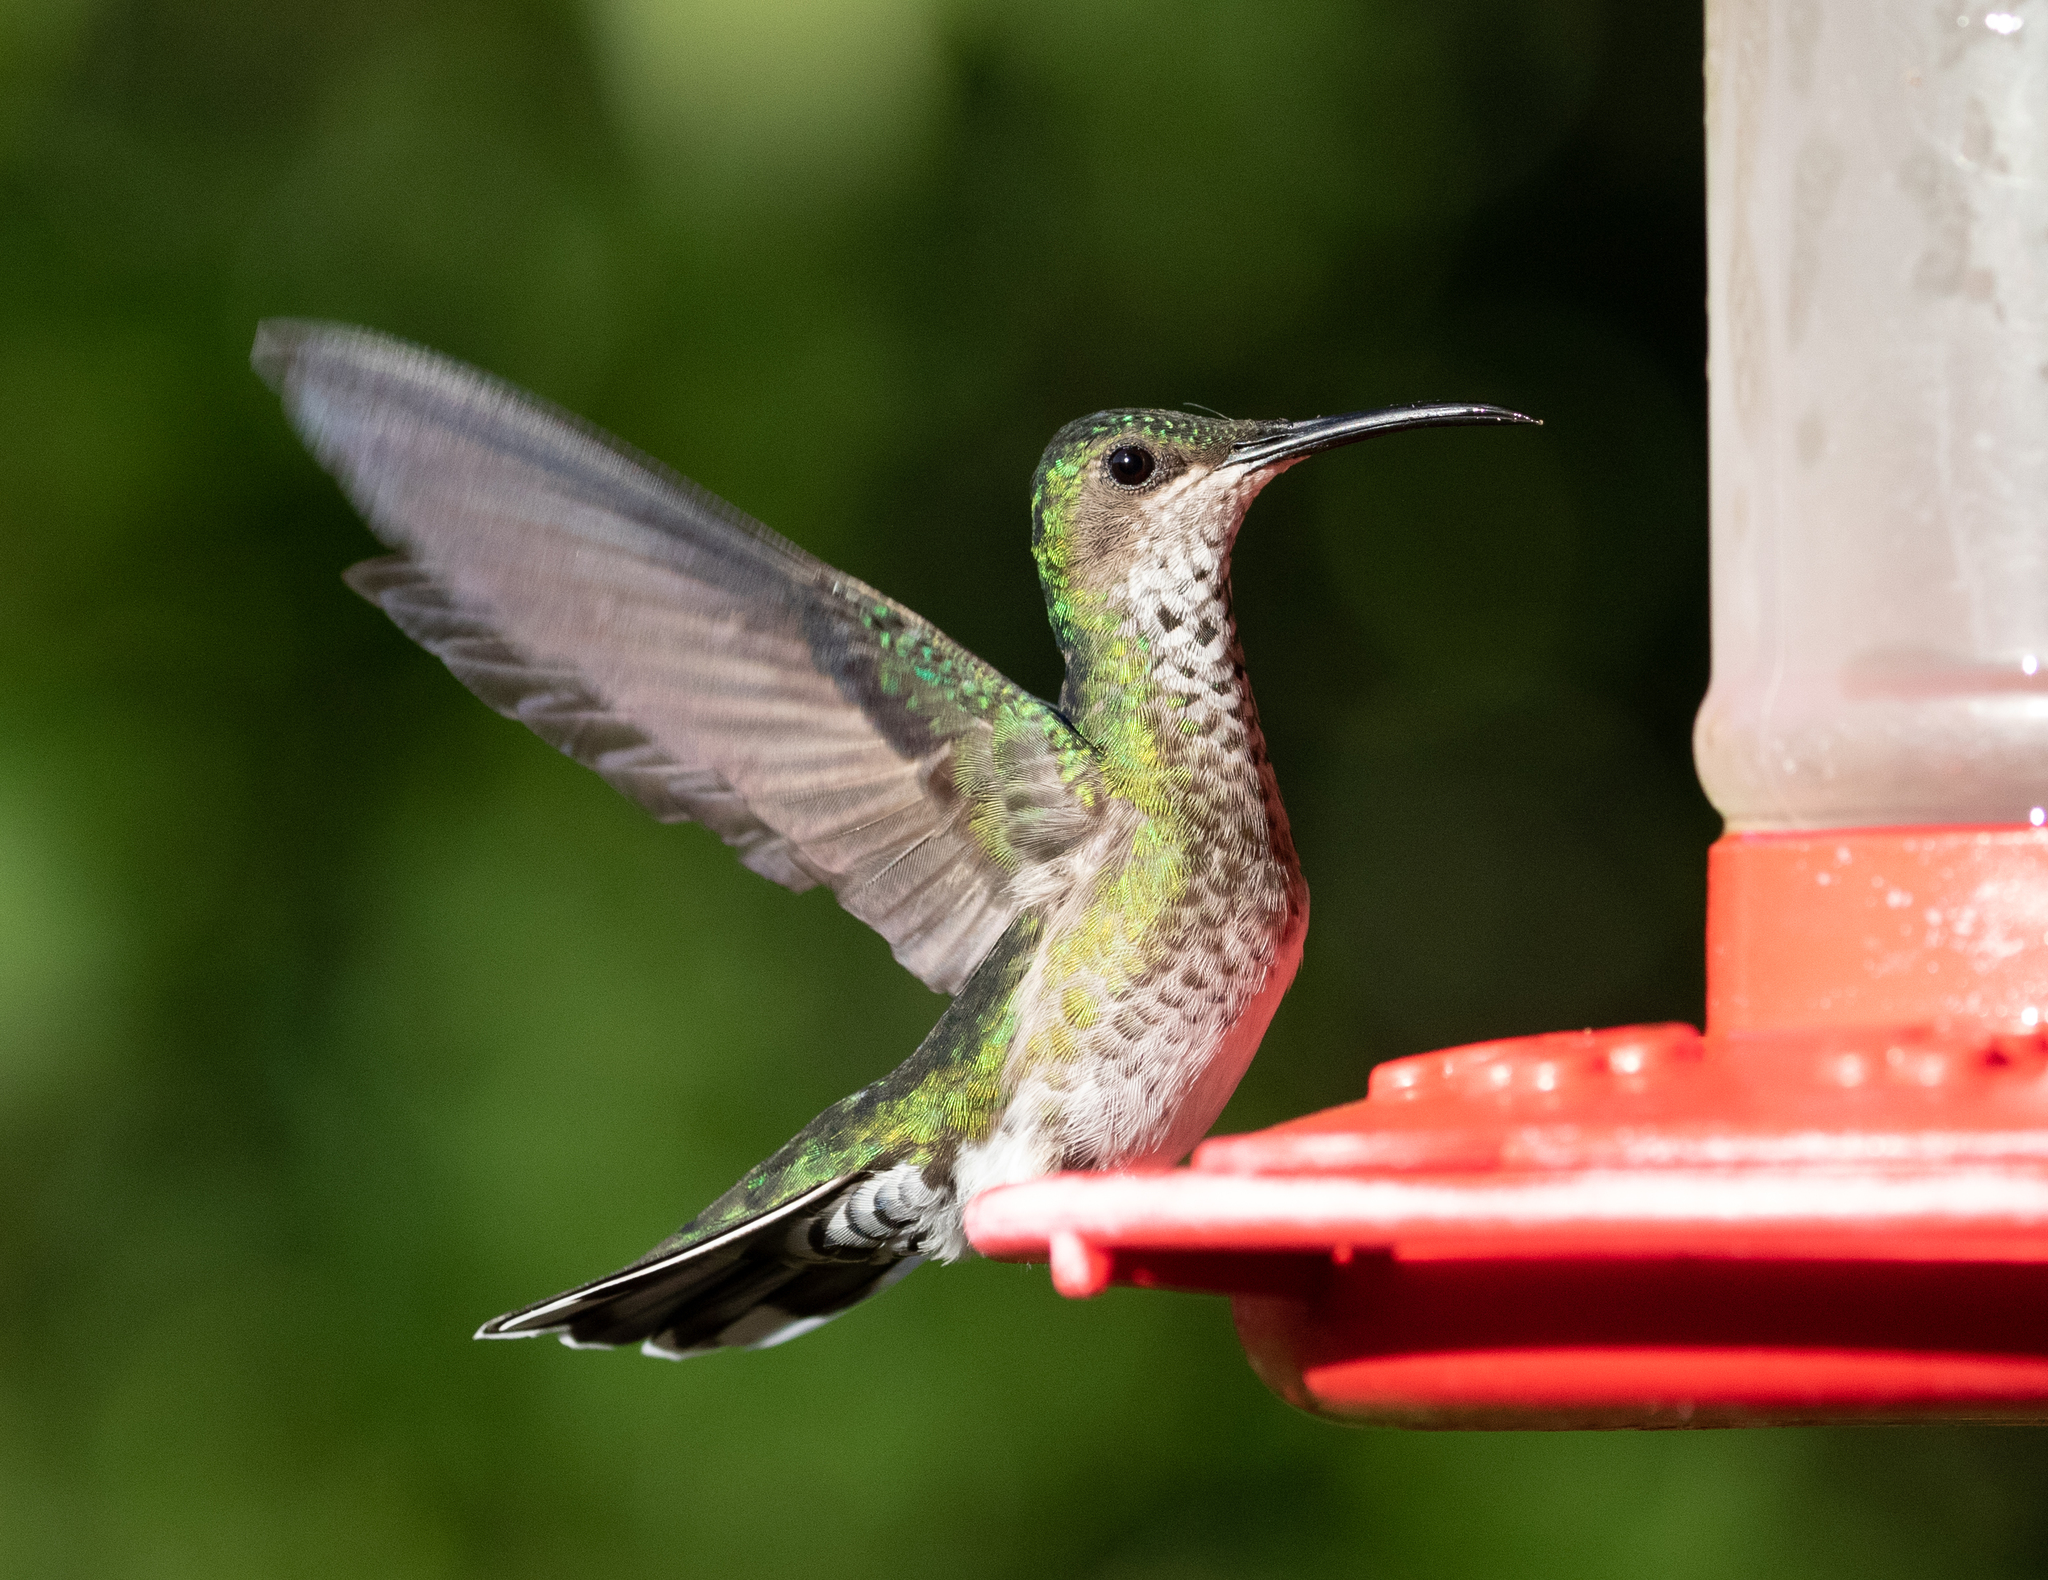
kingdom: Animalia
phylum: Chordata
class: Aves
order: Apodiformes
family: Trochilidae
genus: Florisuga
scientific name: Florisuga mellivora
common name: White-necked jacobin
